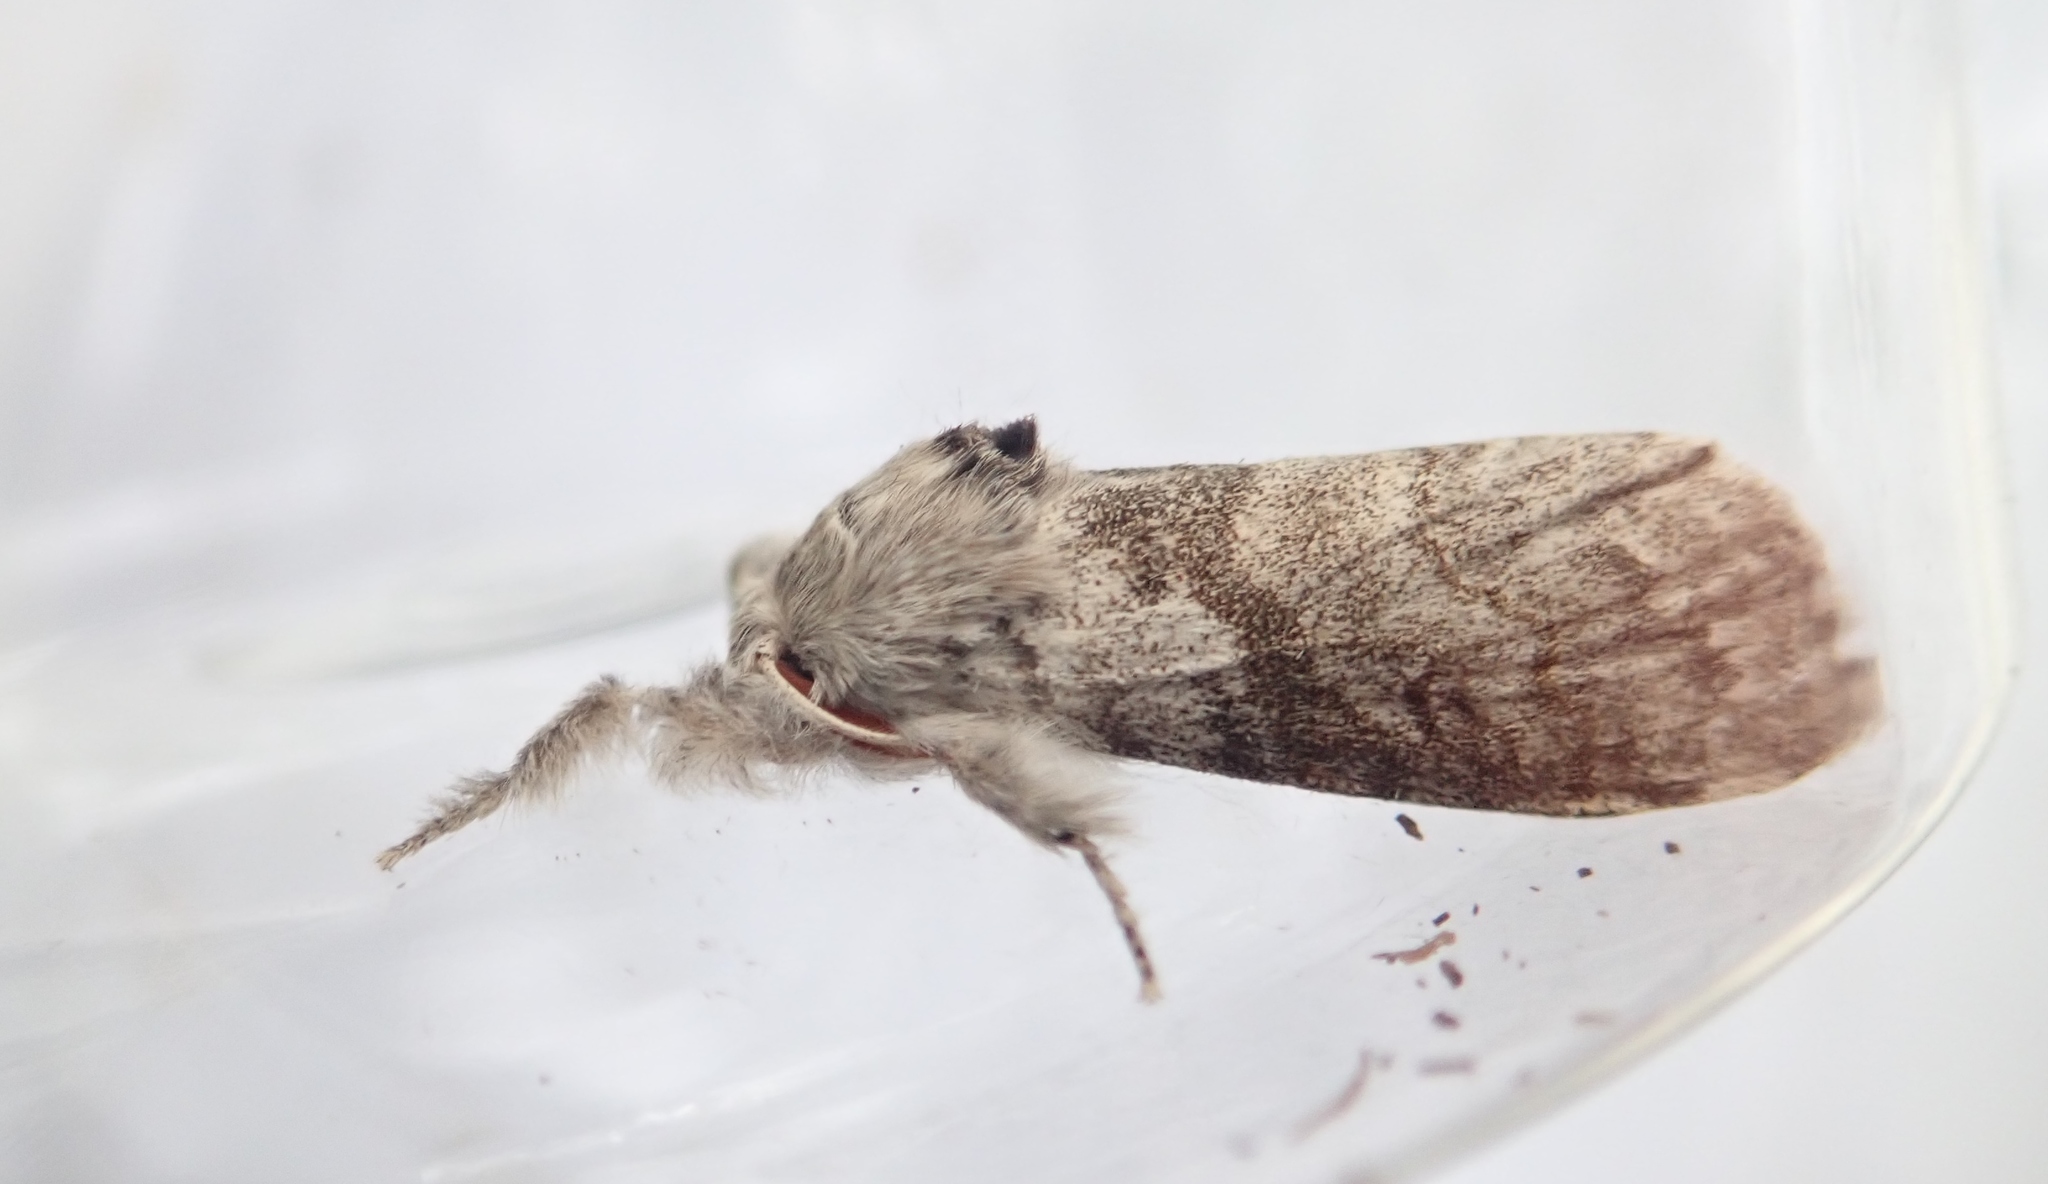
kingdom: Animalia
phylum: Arthropoda
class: Insecta
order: Lepidoptera
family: Erebidae
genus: Calliteara
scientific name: Calliteara pudibunda
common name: Pale tussock
